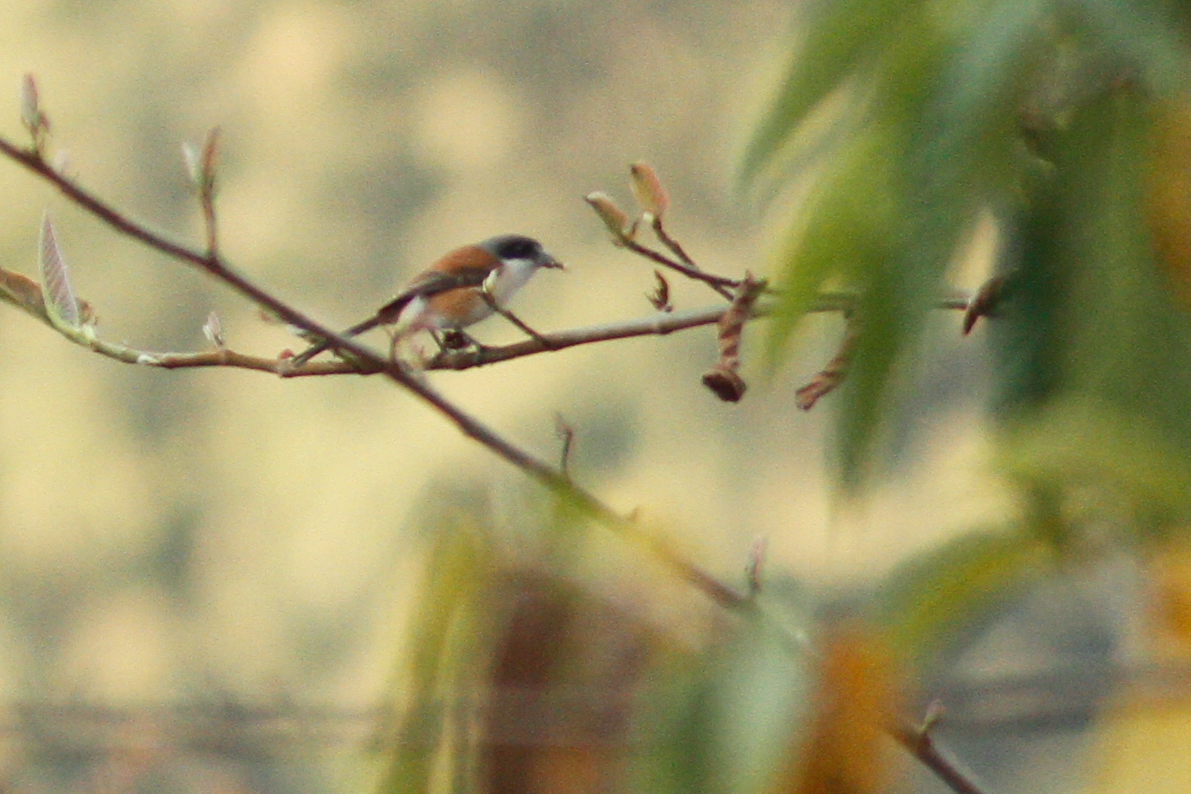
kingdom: Animalia
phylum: Chordata
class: Aves
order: Passeriformes
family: Laniidae
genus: Lanius
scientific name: Lanius collurioides
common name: Burmese shrike
